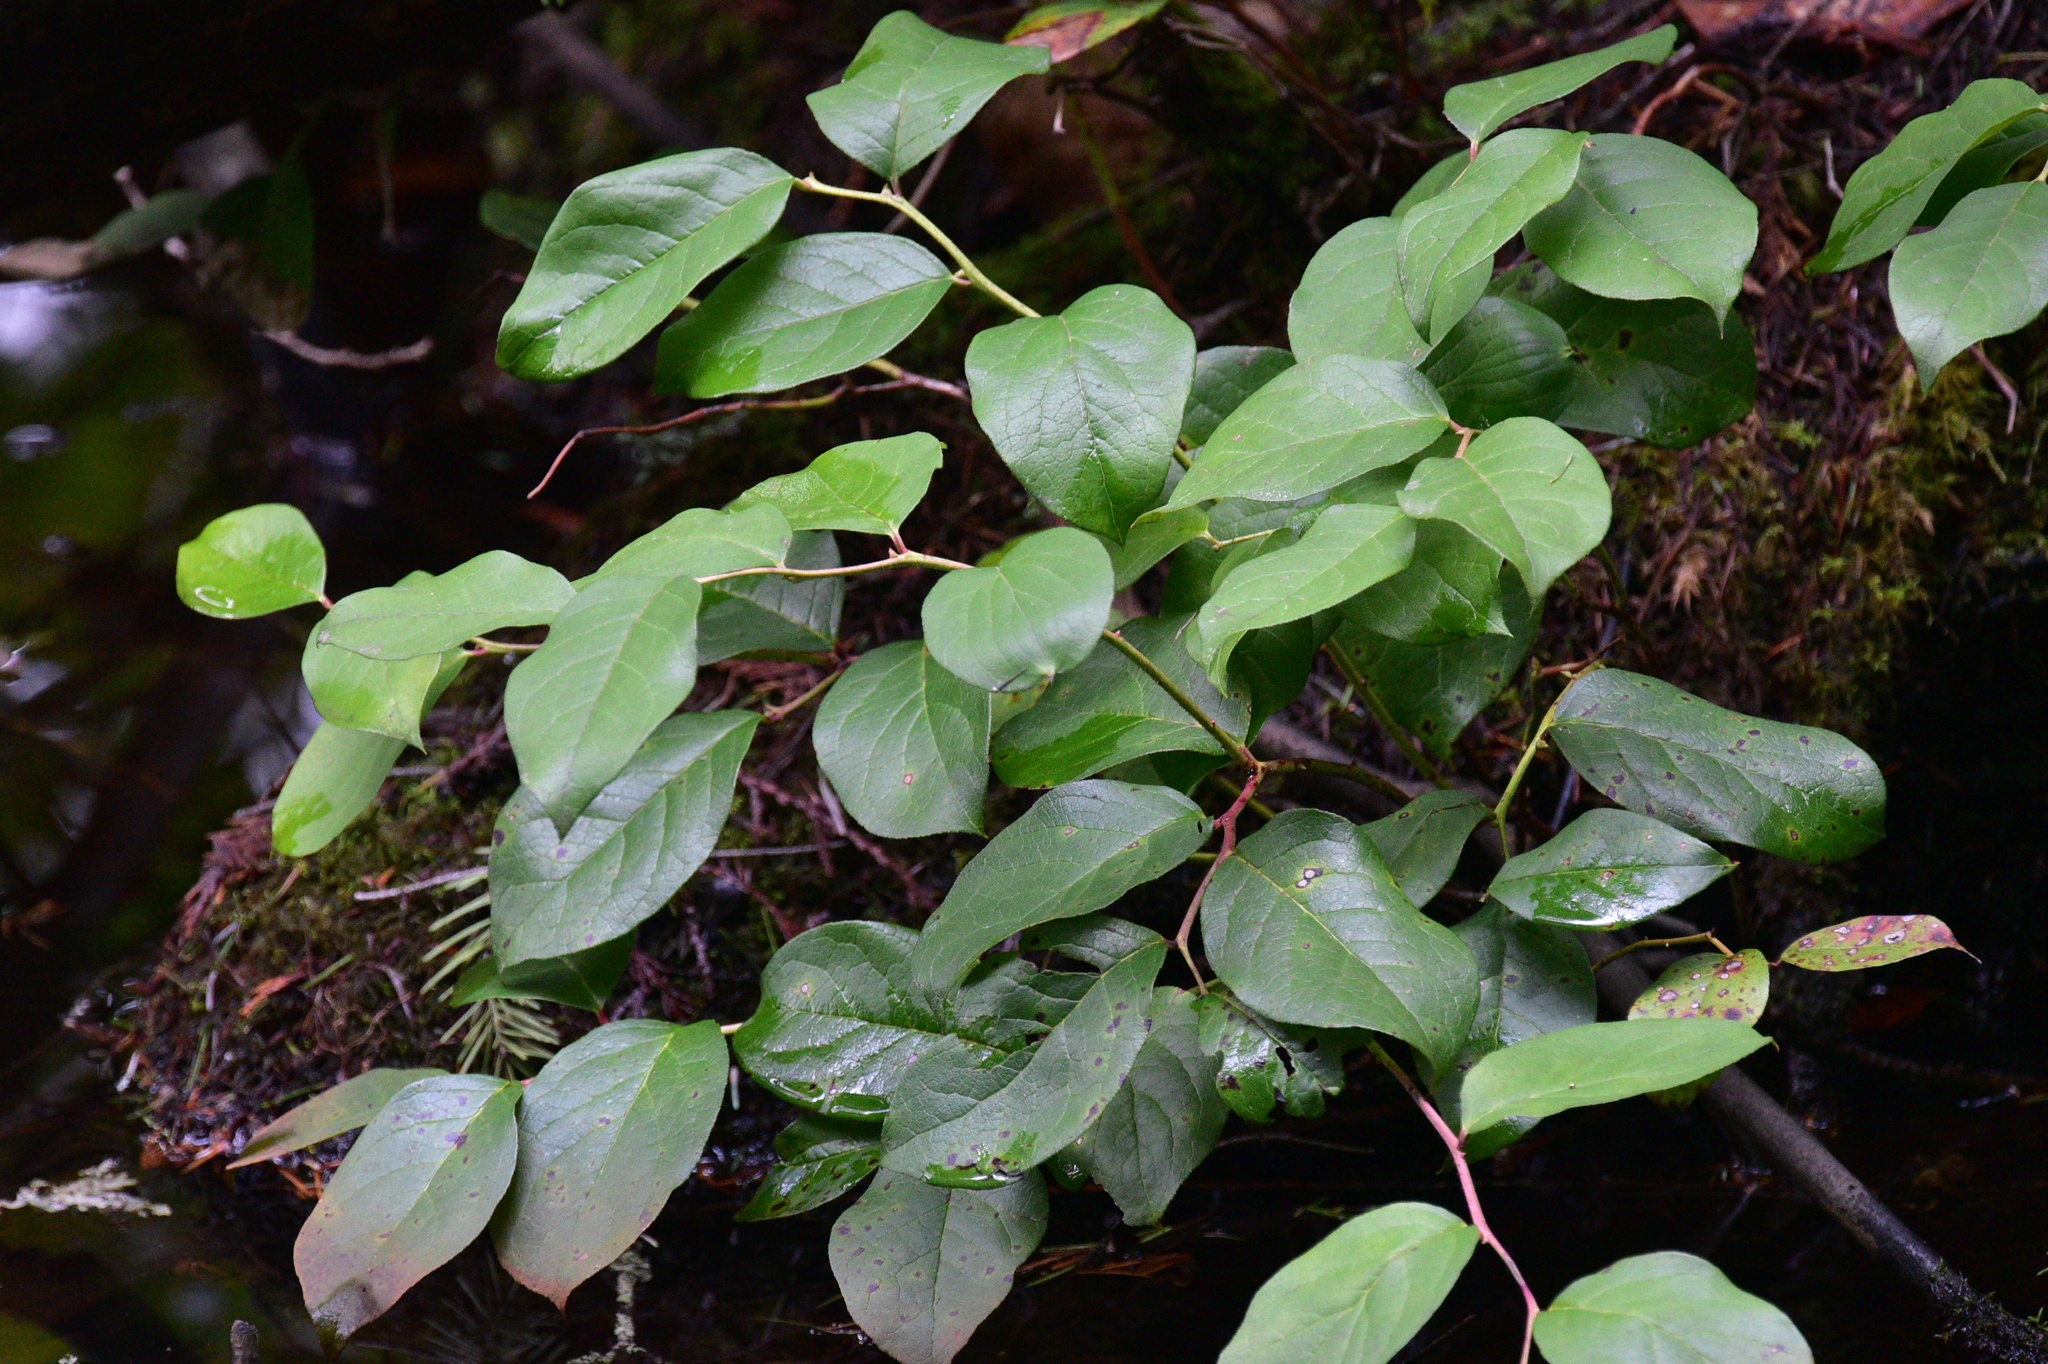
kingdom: Plantae
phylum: Tracheophyta
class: Magnoliopsida
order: Ericales
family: Ericaceae
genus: Gaultheria
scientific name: Gaultheria shallon
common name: Shallon
